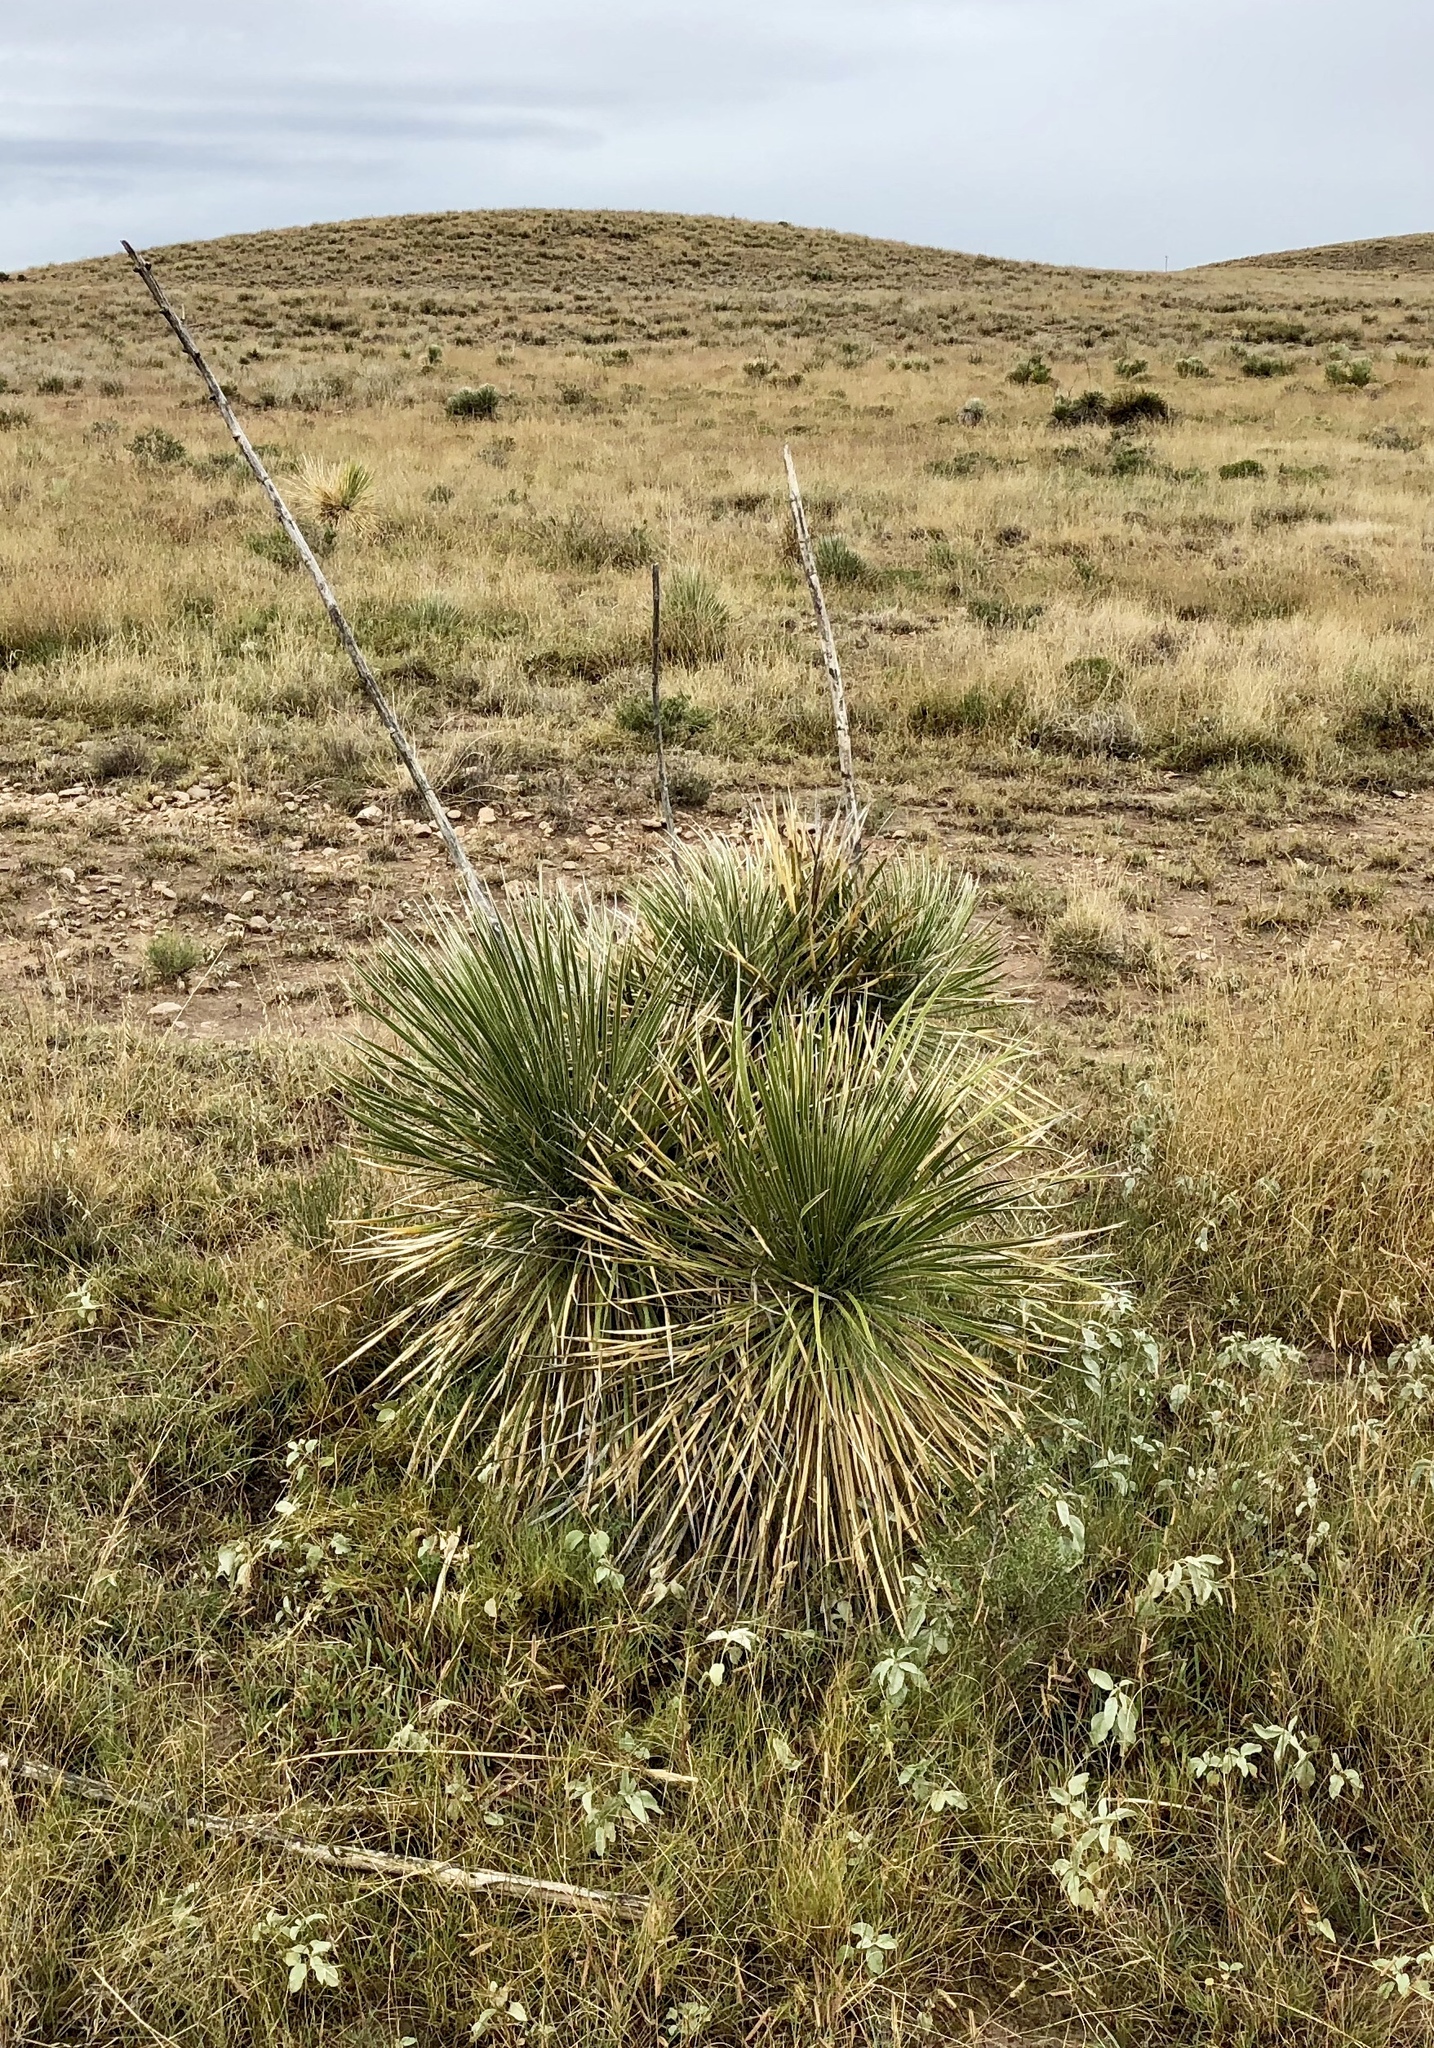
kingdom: Plantae
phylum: Tracheophyta
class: Liliopsida
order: Asparagales
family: Asparagaceae
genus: Yucca
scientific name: Yucca elata
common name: Palmella
